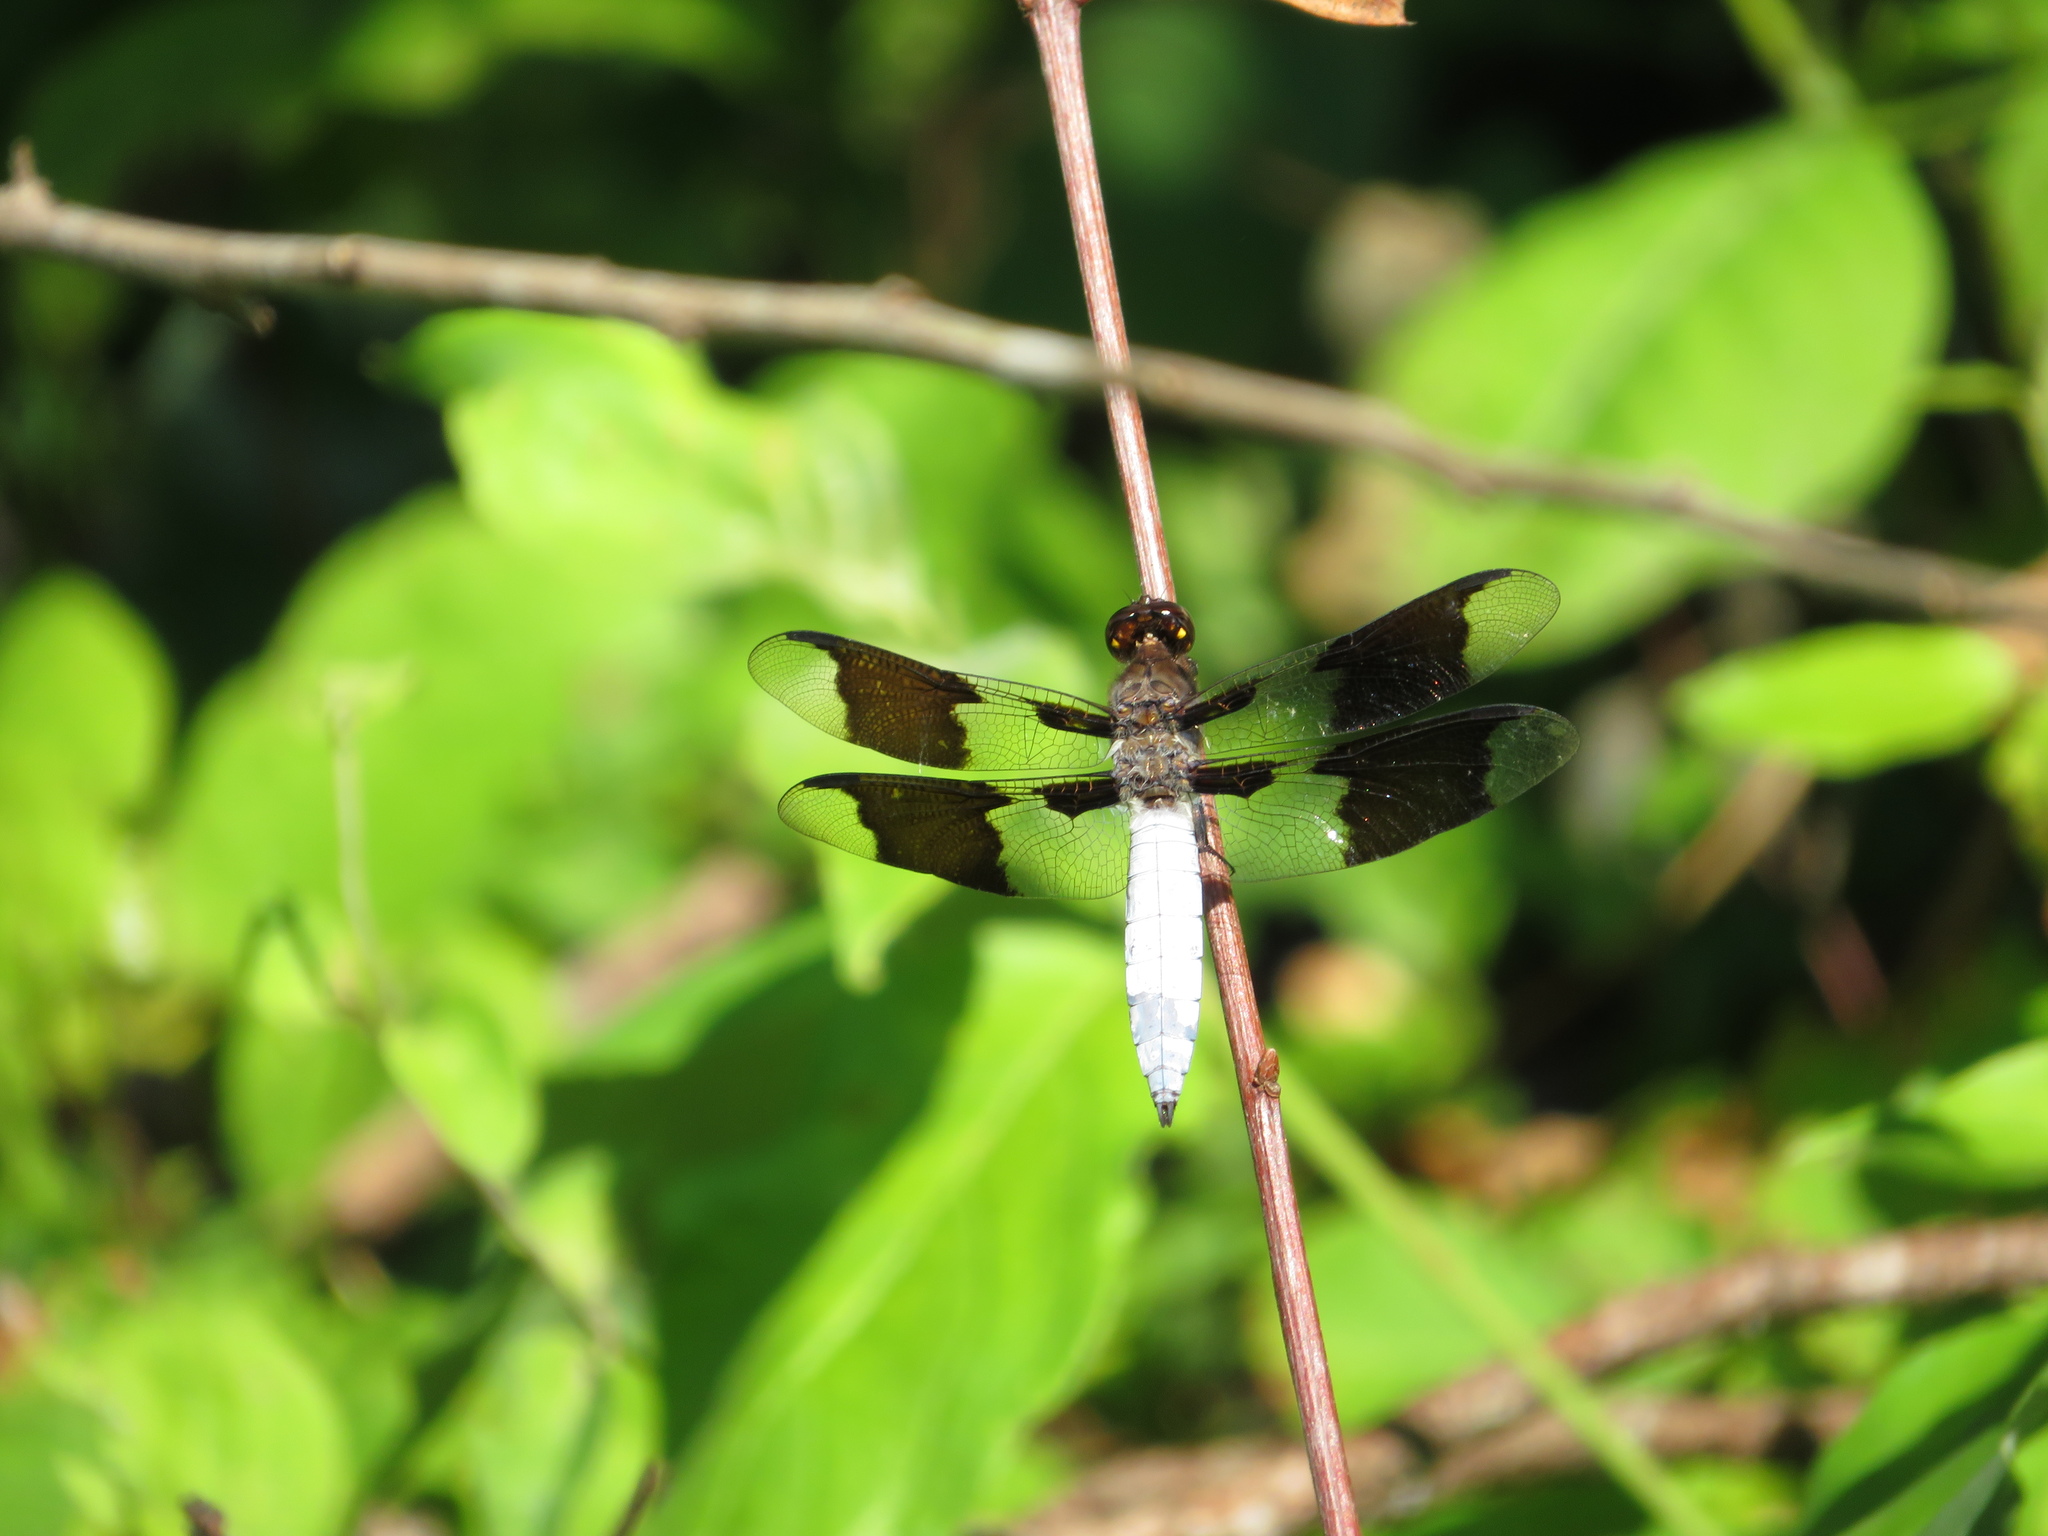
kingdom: Animalia
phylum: Arthropoda
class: Insecta
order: Odonata
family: Libellulidae
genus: Plathemis
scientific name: Plathemis lydia
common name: Common whitetail
